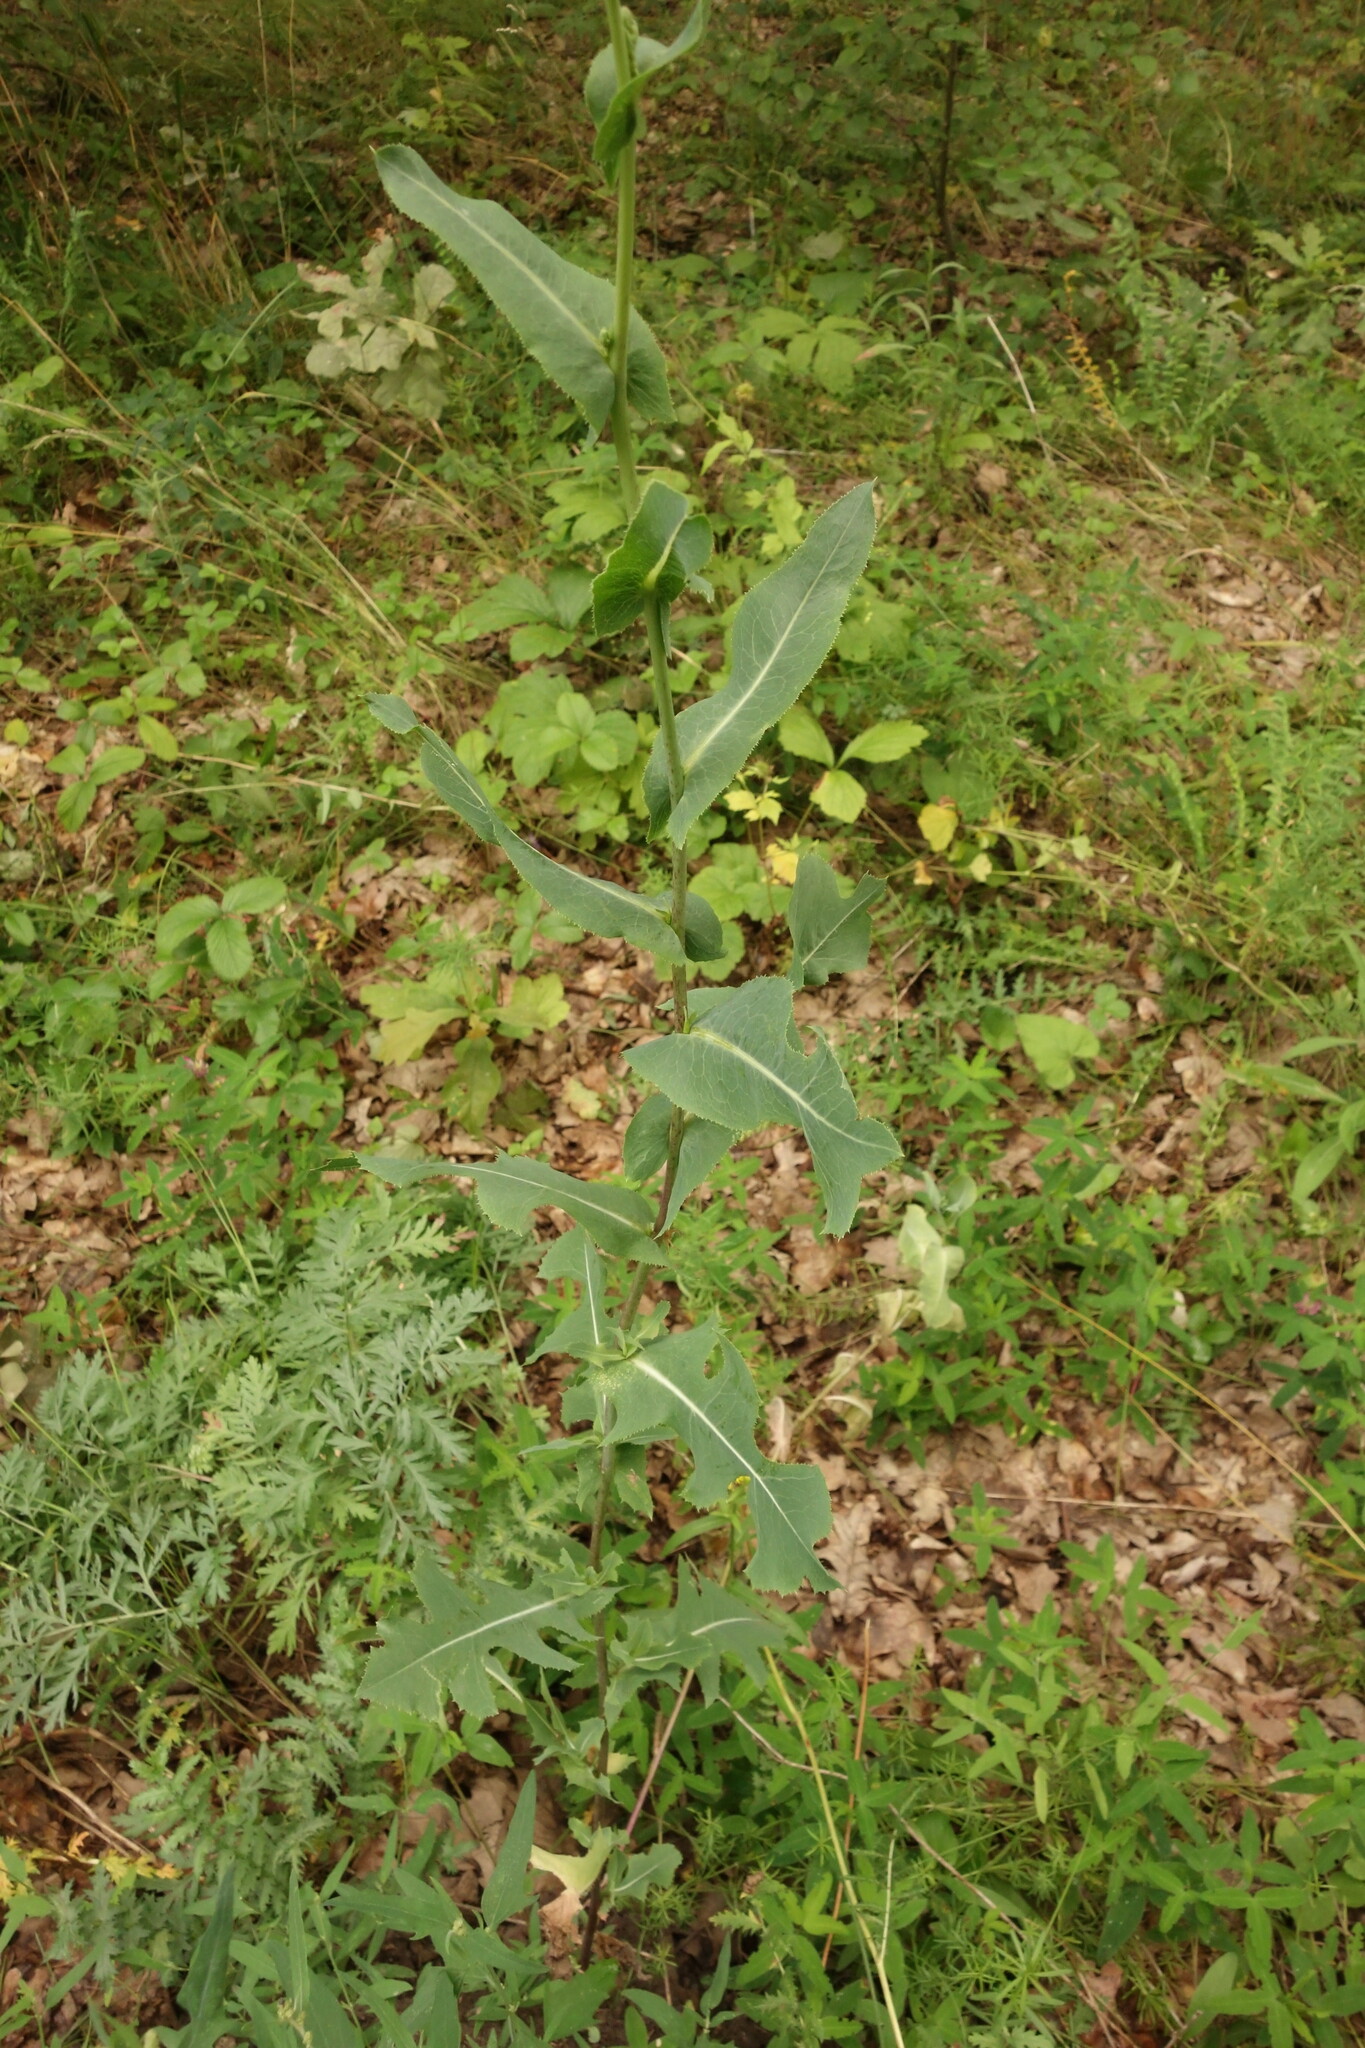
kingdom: Plantae
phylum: Tracheophyta
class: Magnoliopsida
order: Asterales
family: Asteraceae
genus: Lactuca
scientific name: Lactuca serriola
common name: Prickly lettuce
